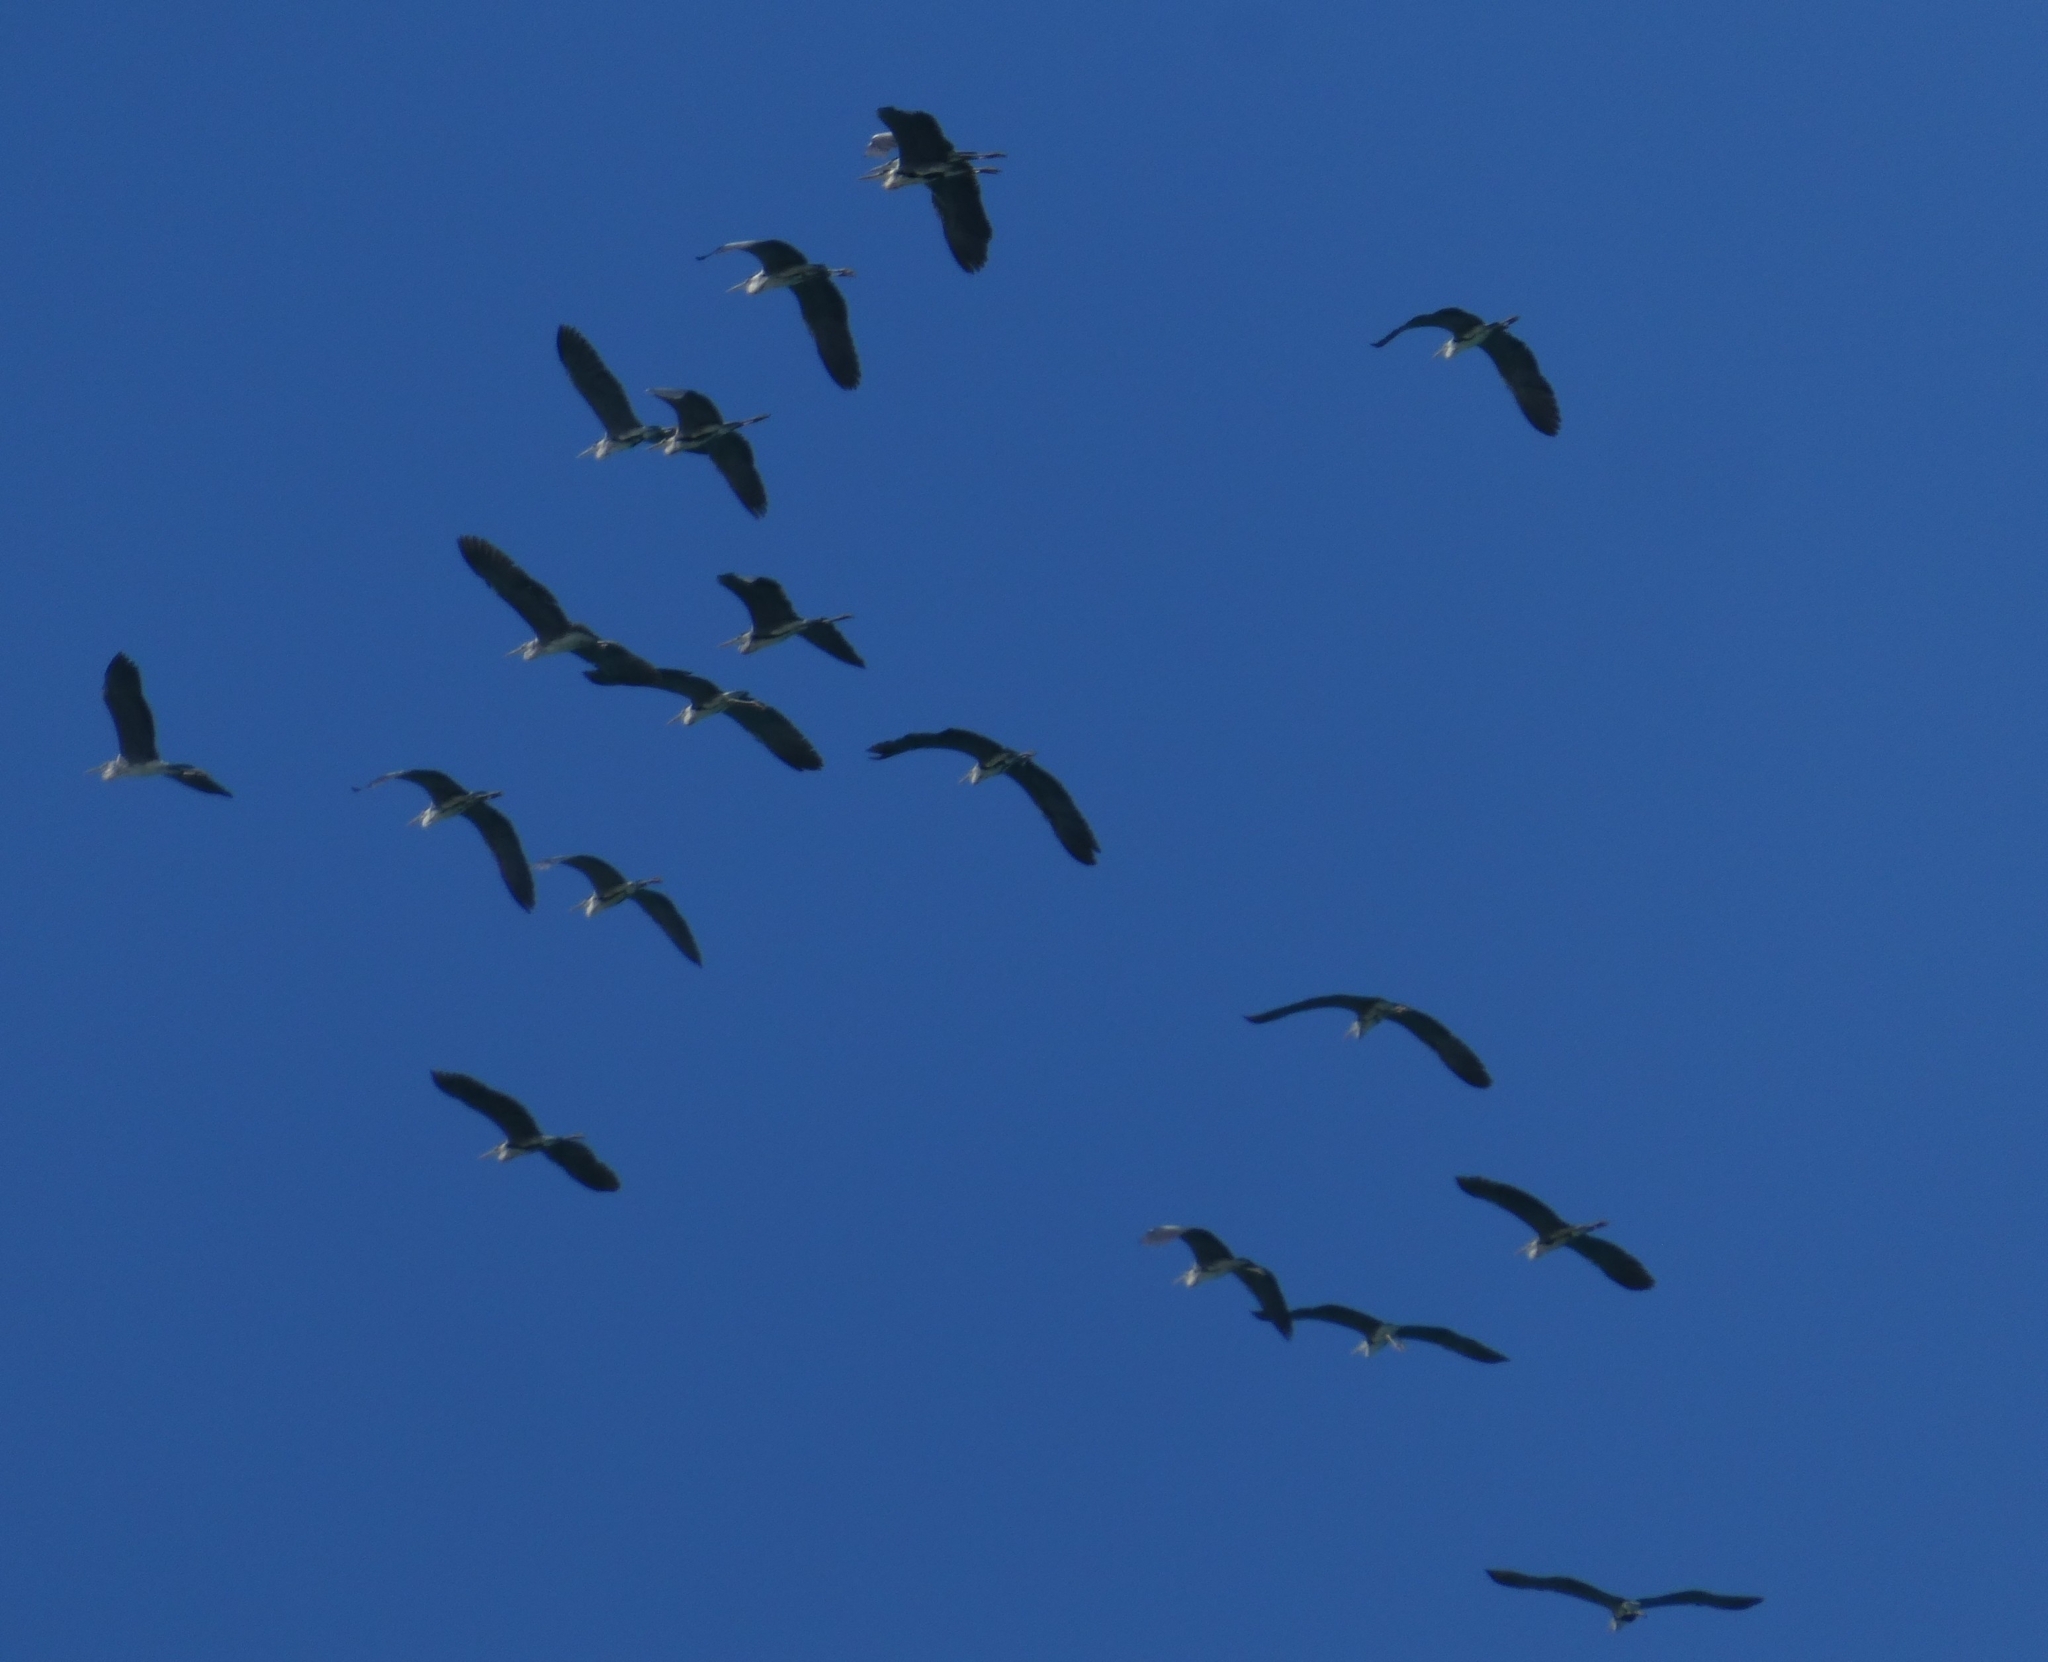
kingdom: Animalia
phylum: Chordata
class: Aves
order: Pelecaniformes
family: Ardeidae
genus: Ardea
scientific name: Ardea cinerea
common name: Grey heron
